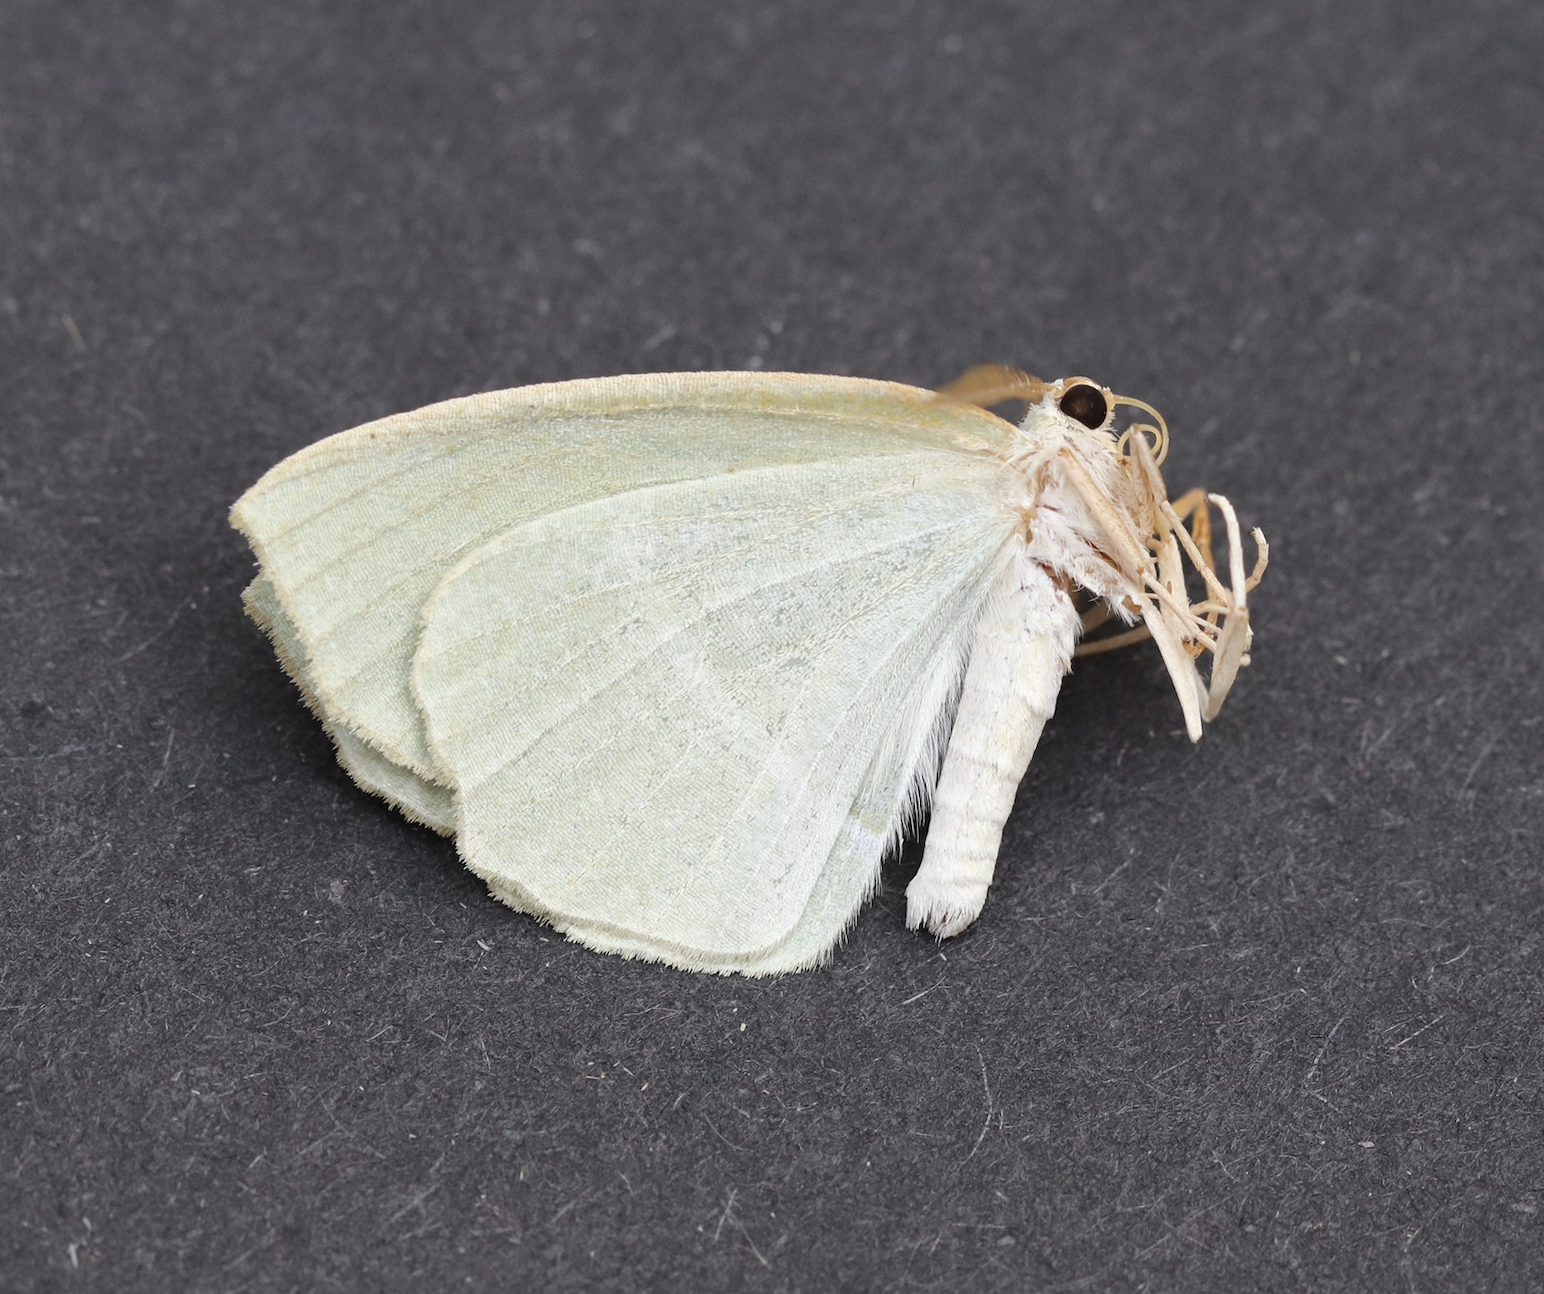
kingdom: Animalia
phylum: Arthropoda
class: Insecta
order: Lepidoptera
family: Geometridae
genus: Campaea
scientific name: Campaea perlata
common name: Fringed looper
